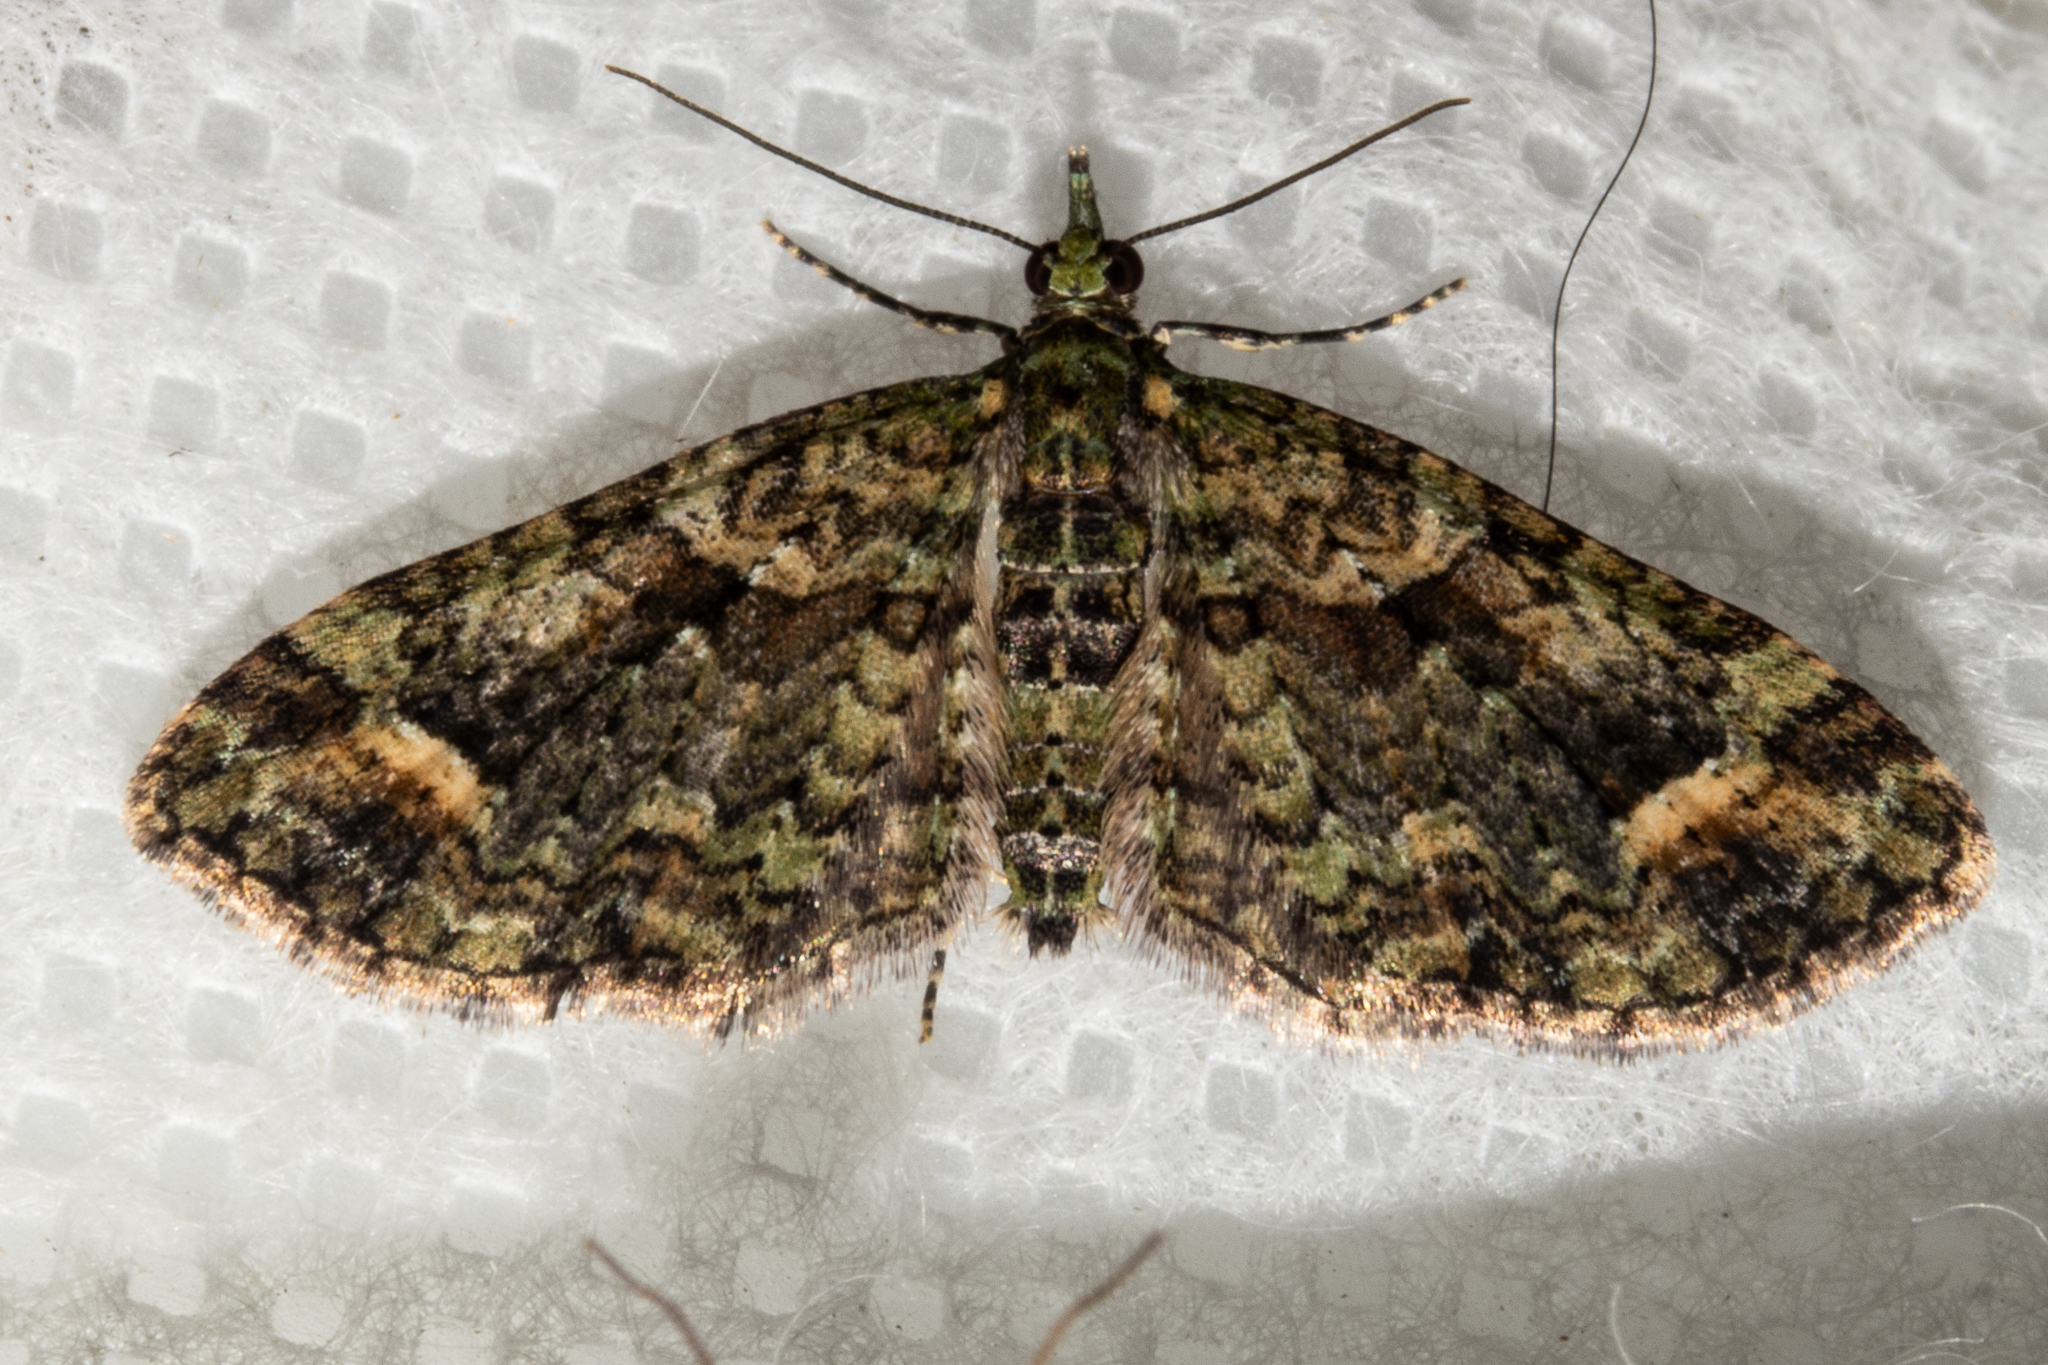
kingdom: Animalia
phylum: Arthropoda
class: Insecta
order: Lepidoptera
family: Geometridae
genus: Idaea
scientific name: Idaea mutanda
